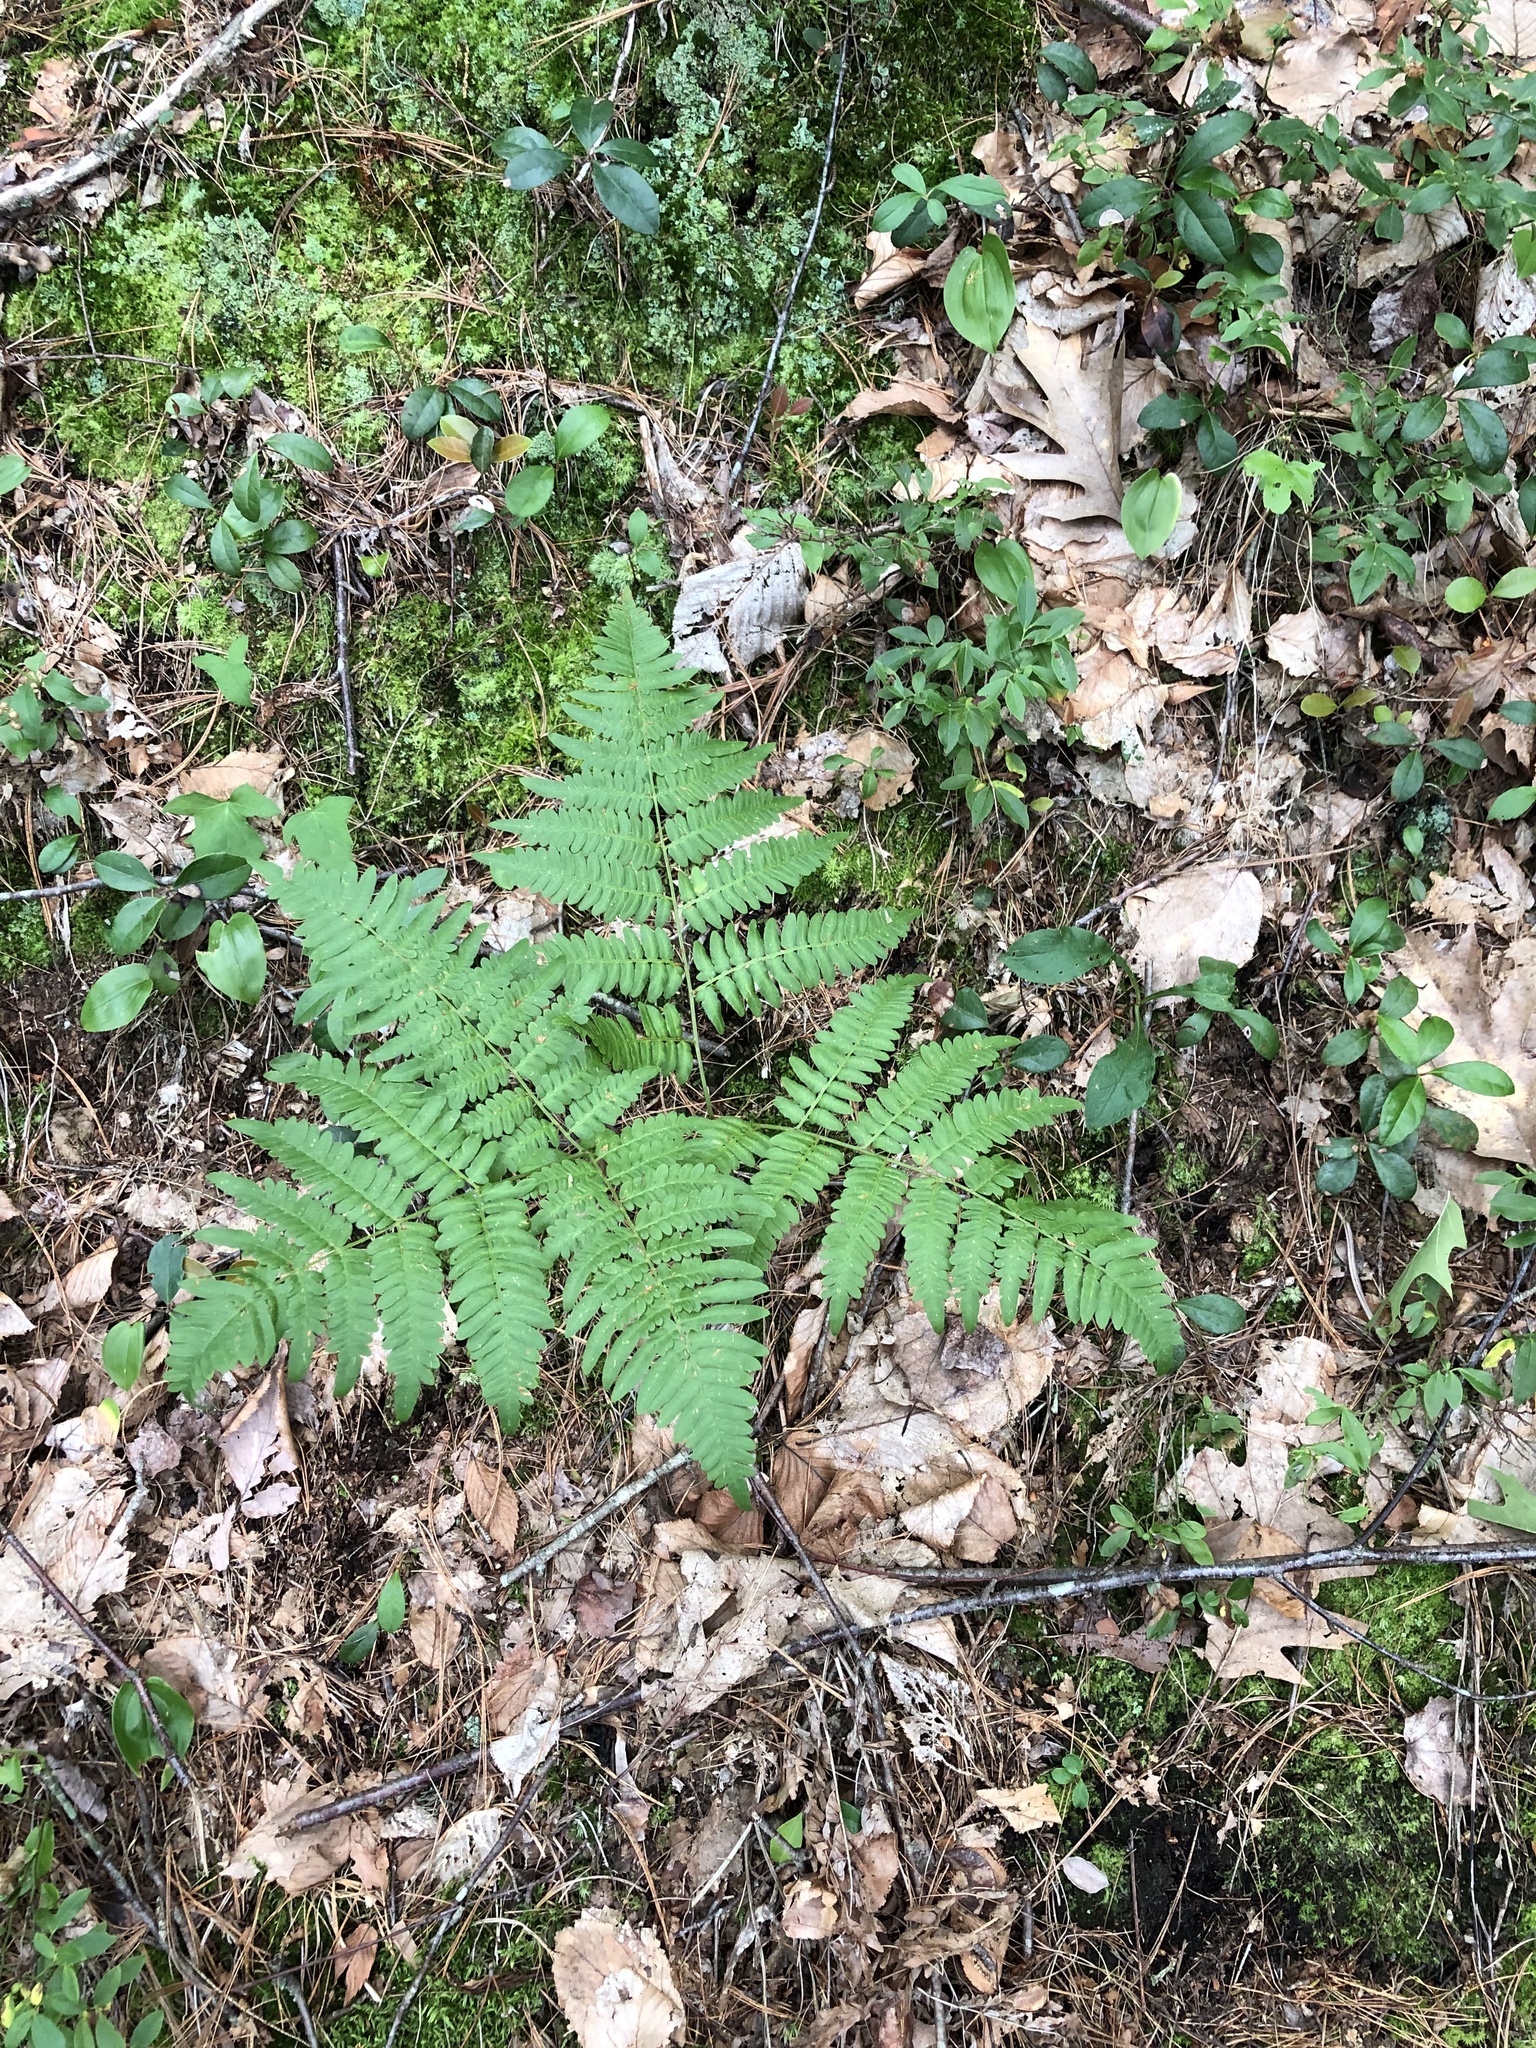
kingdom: Plantae
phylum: Tracheophyta
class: Polypodiopsida
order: Polypodiales
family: Dennstaedtiaceae
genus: Pteridium
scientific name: Pteridium aquilinum
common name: Bracken
